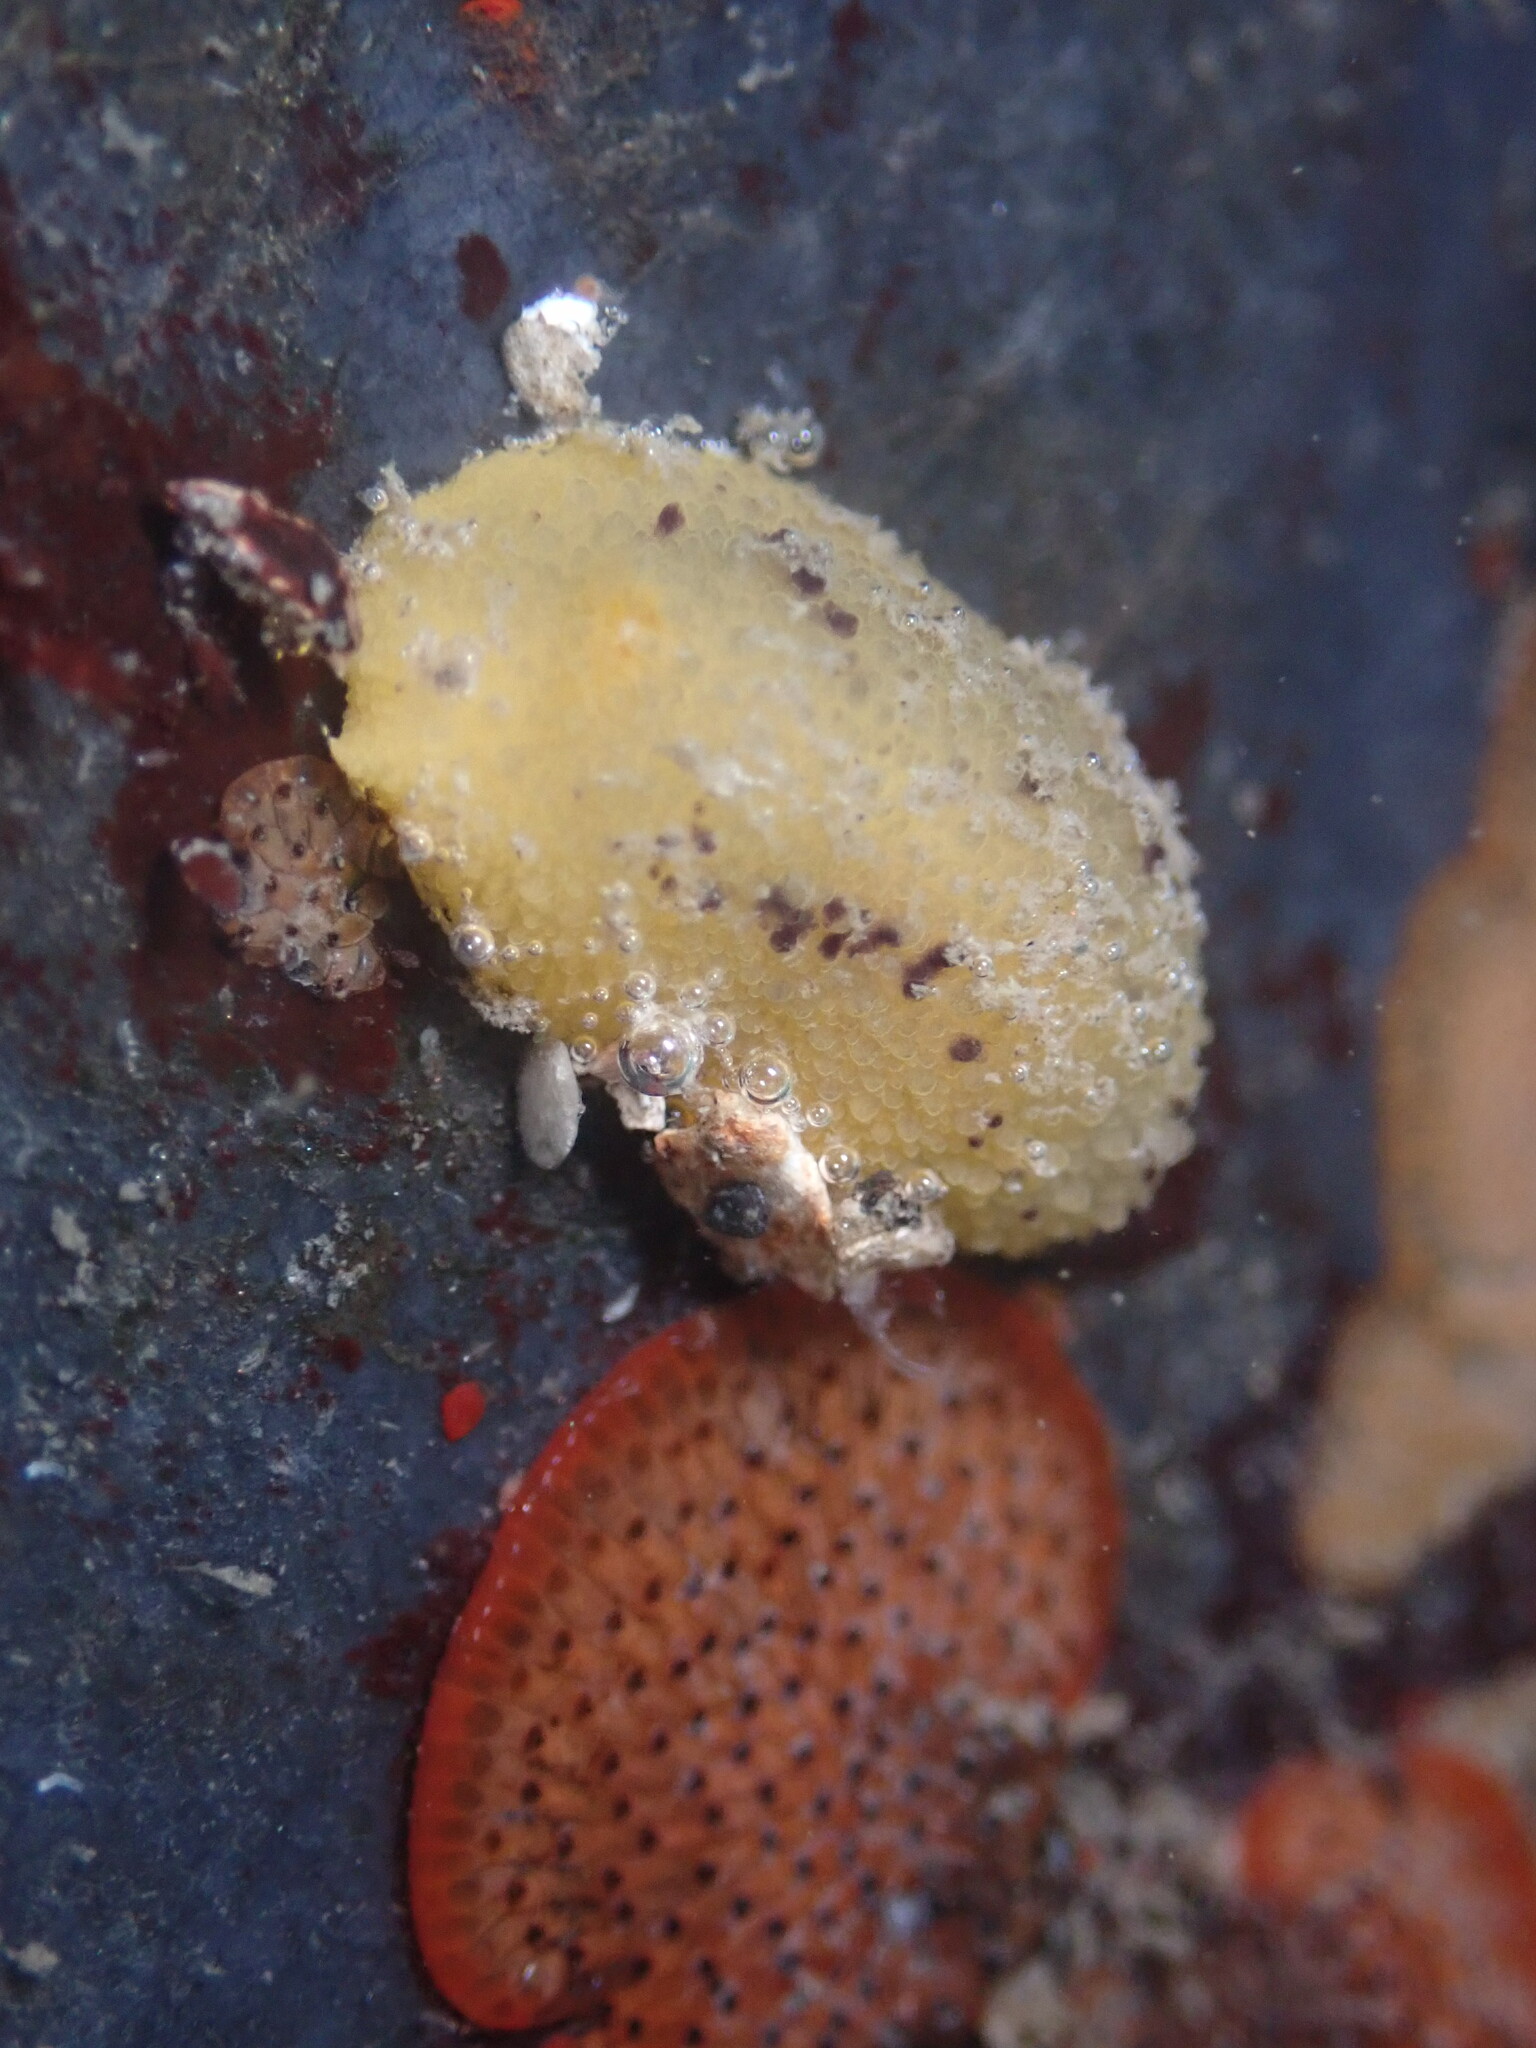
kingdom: Animalia
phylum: Mollusca
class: Gastropoda
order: Nudibranchia
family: Dorididae
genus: Doris
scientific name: Doris montereyensis
